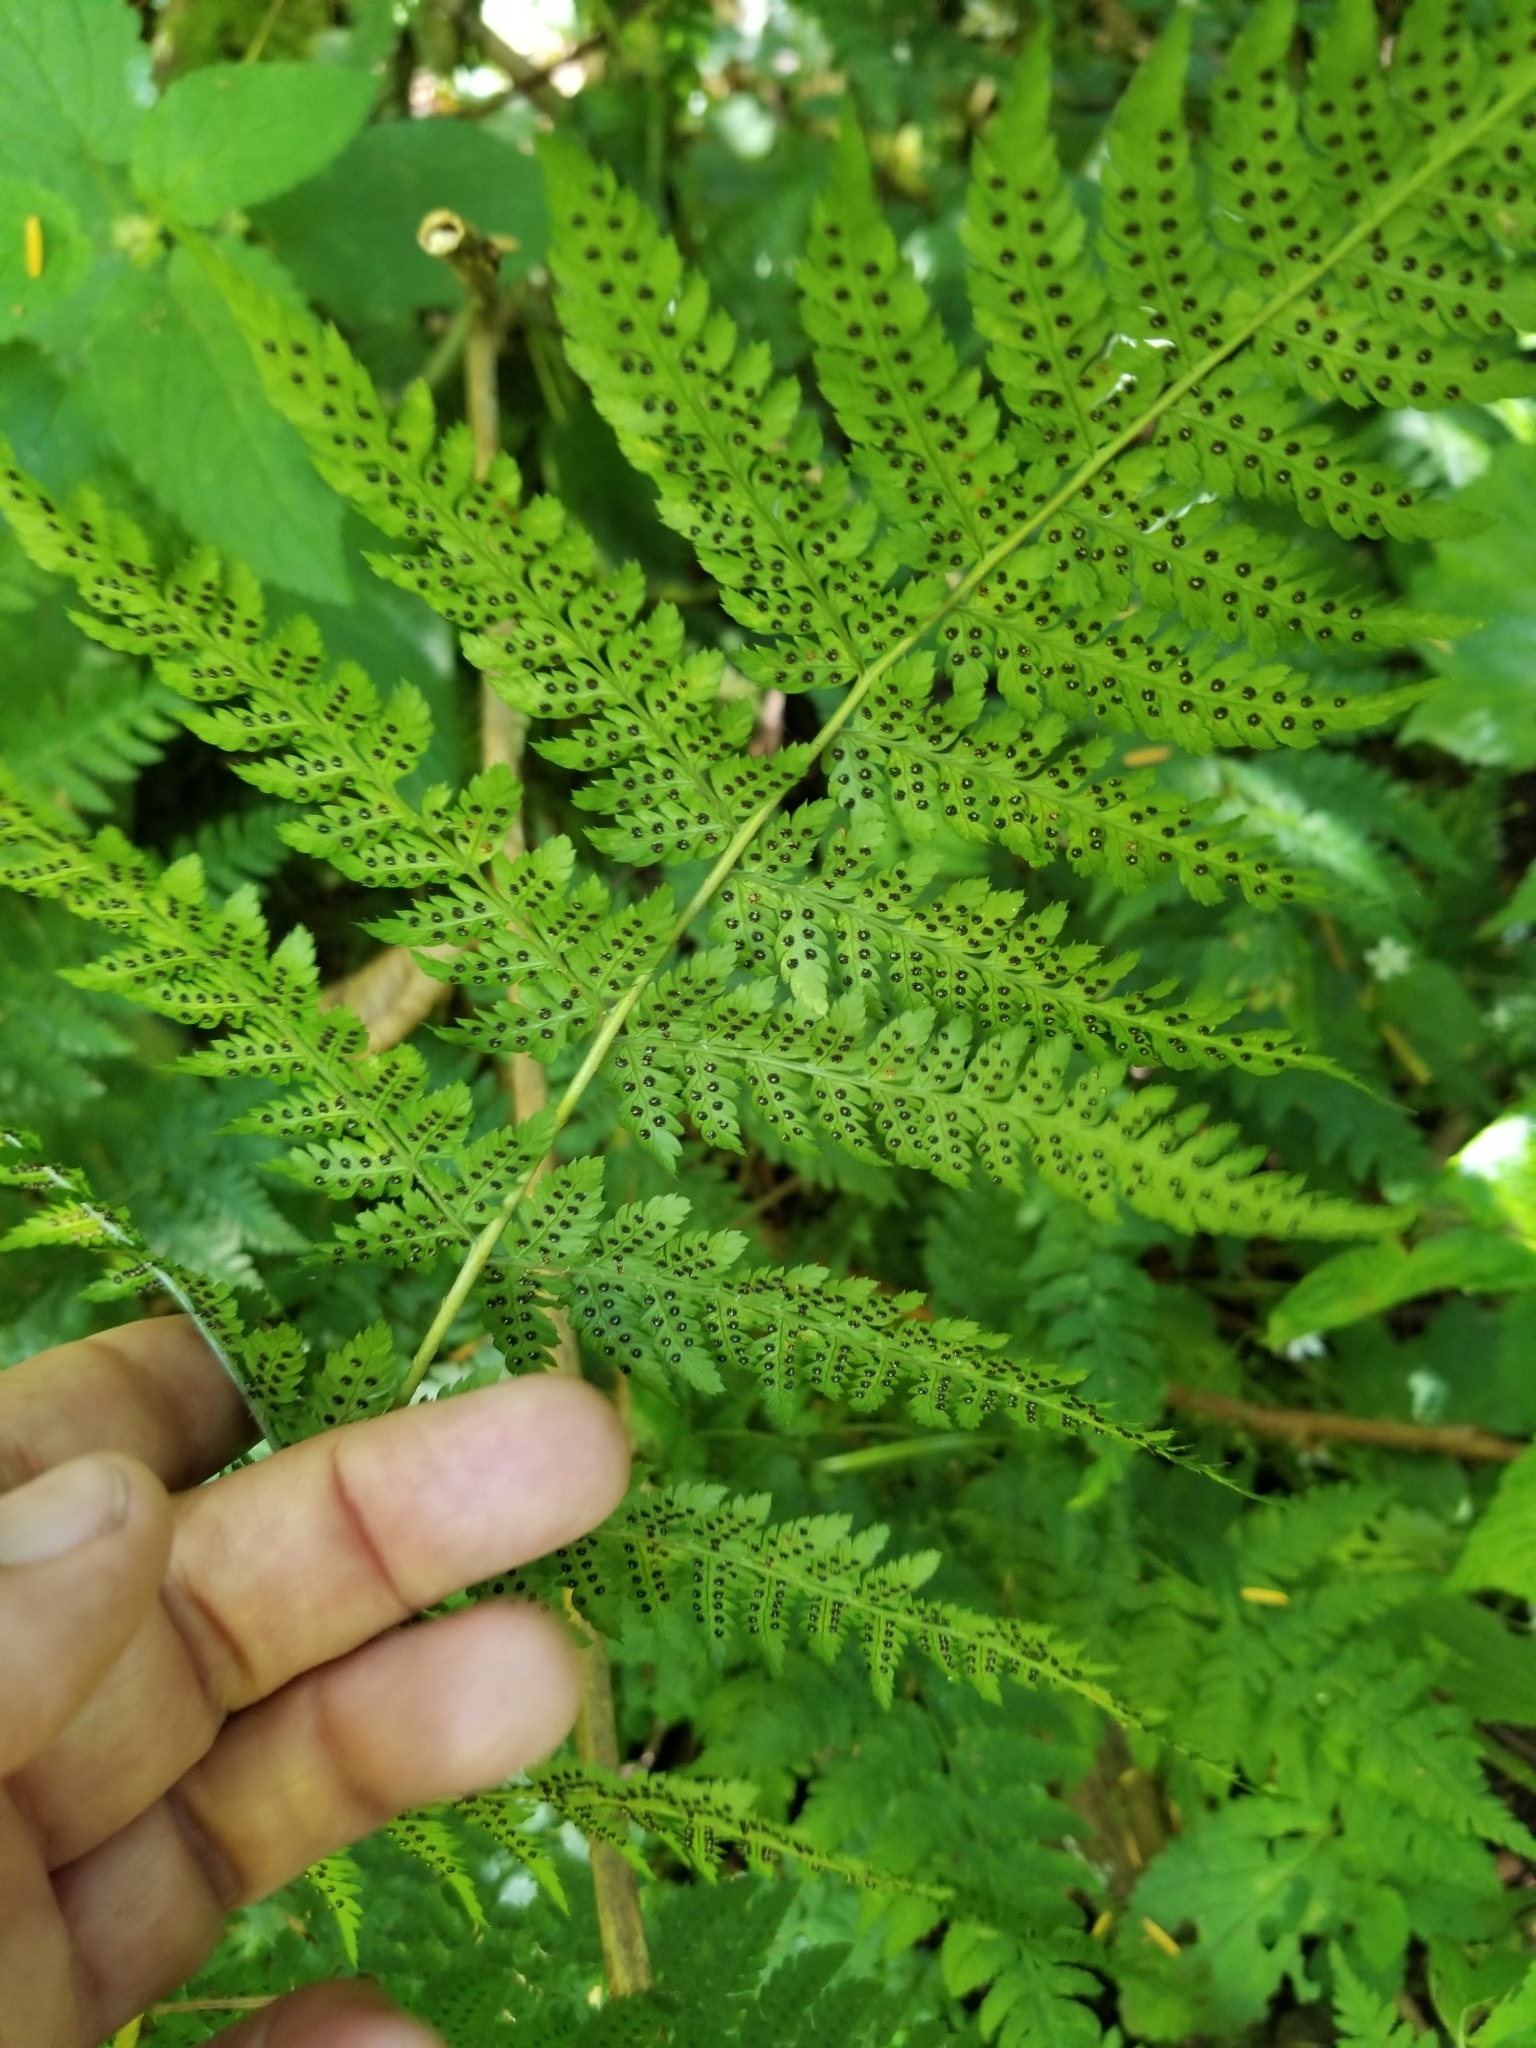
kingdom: Plantae
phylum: Tracheophyta
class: Polypodiopsida
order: Polypodiales
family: Dryopteridaceae
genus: Dryopteris
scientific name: Dryopteris expansa
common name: Northern buckler fern
